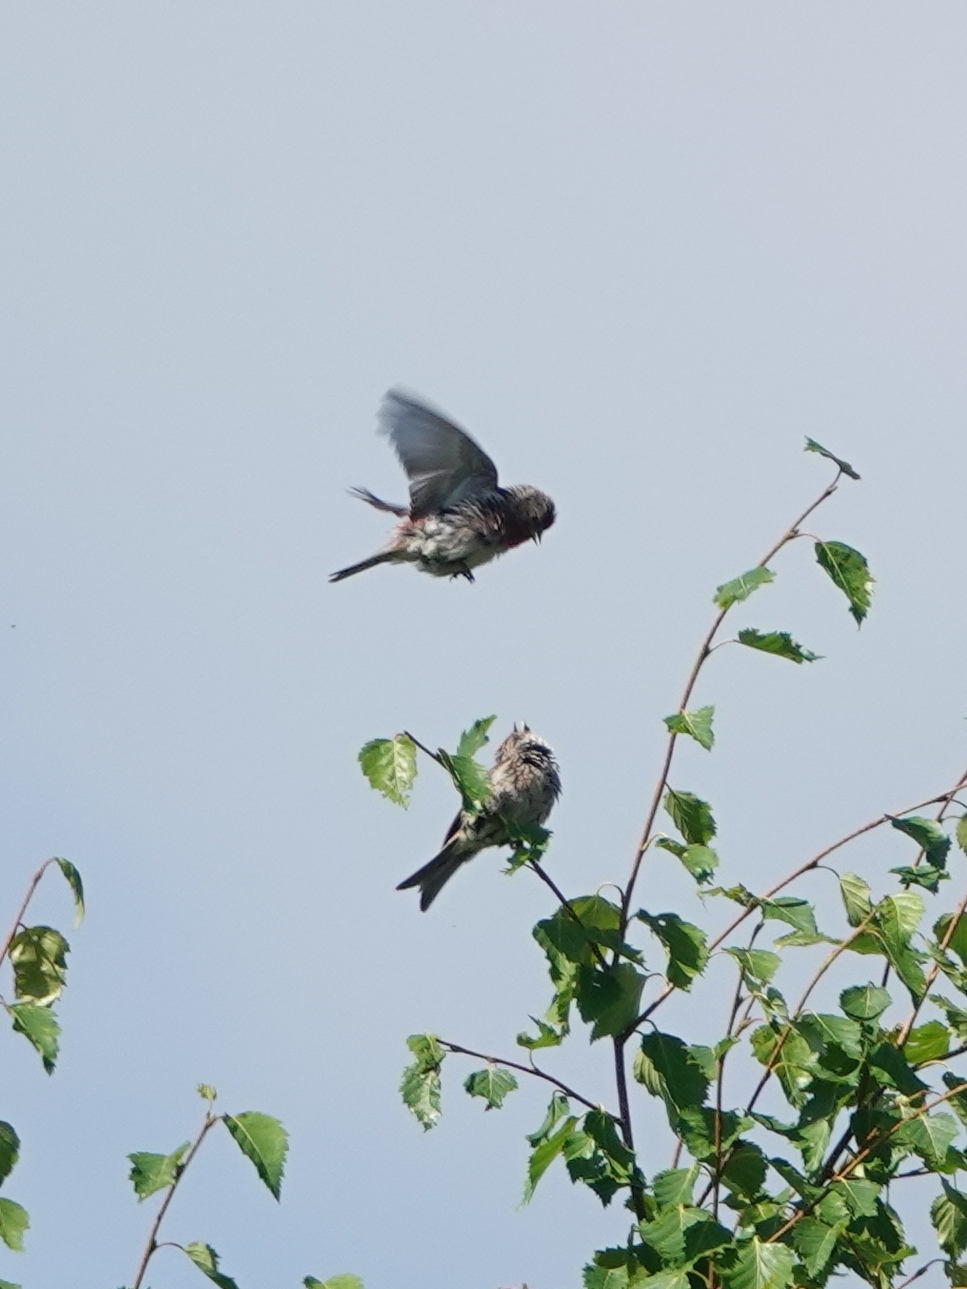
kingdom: Animalia
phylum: Chordata
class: Aves
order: Passeriformes
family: Fringillidae
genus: Acanthis
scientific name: Acanthis flammea
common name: Common redpoll
